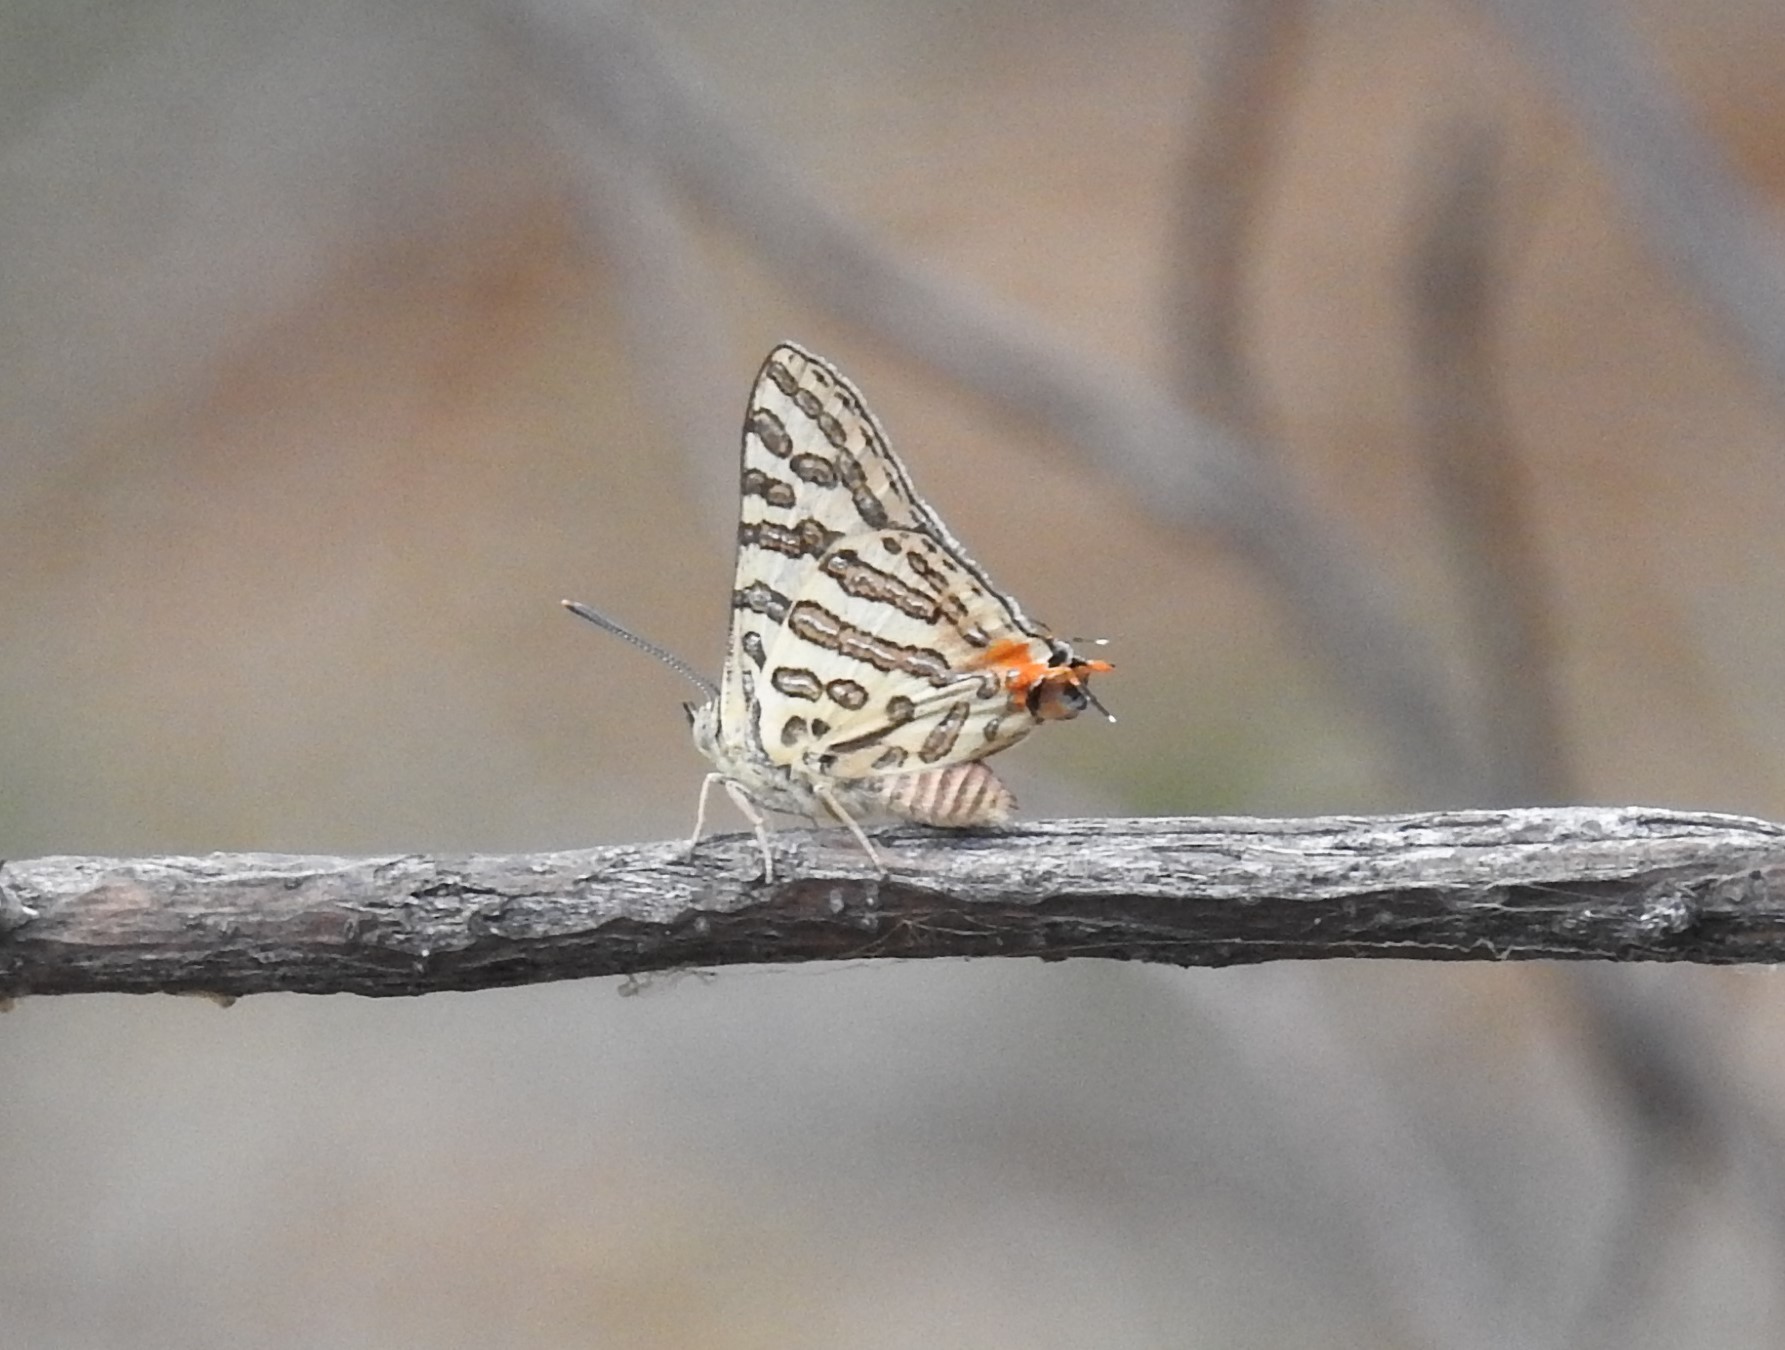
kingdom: Animalia
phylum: Arthropoda
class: Insecta
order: Lepidoptera
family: Lycaenidae
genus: Cigaritis
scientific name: Cigaritis
